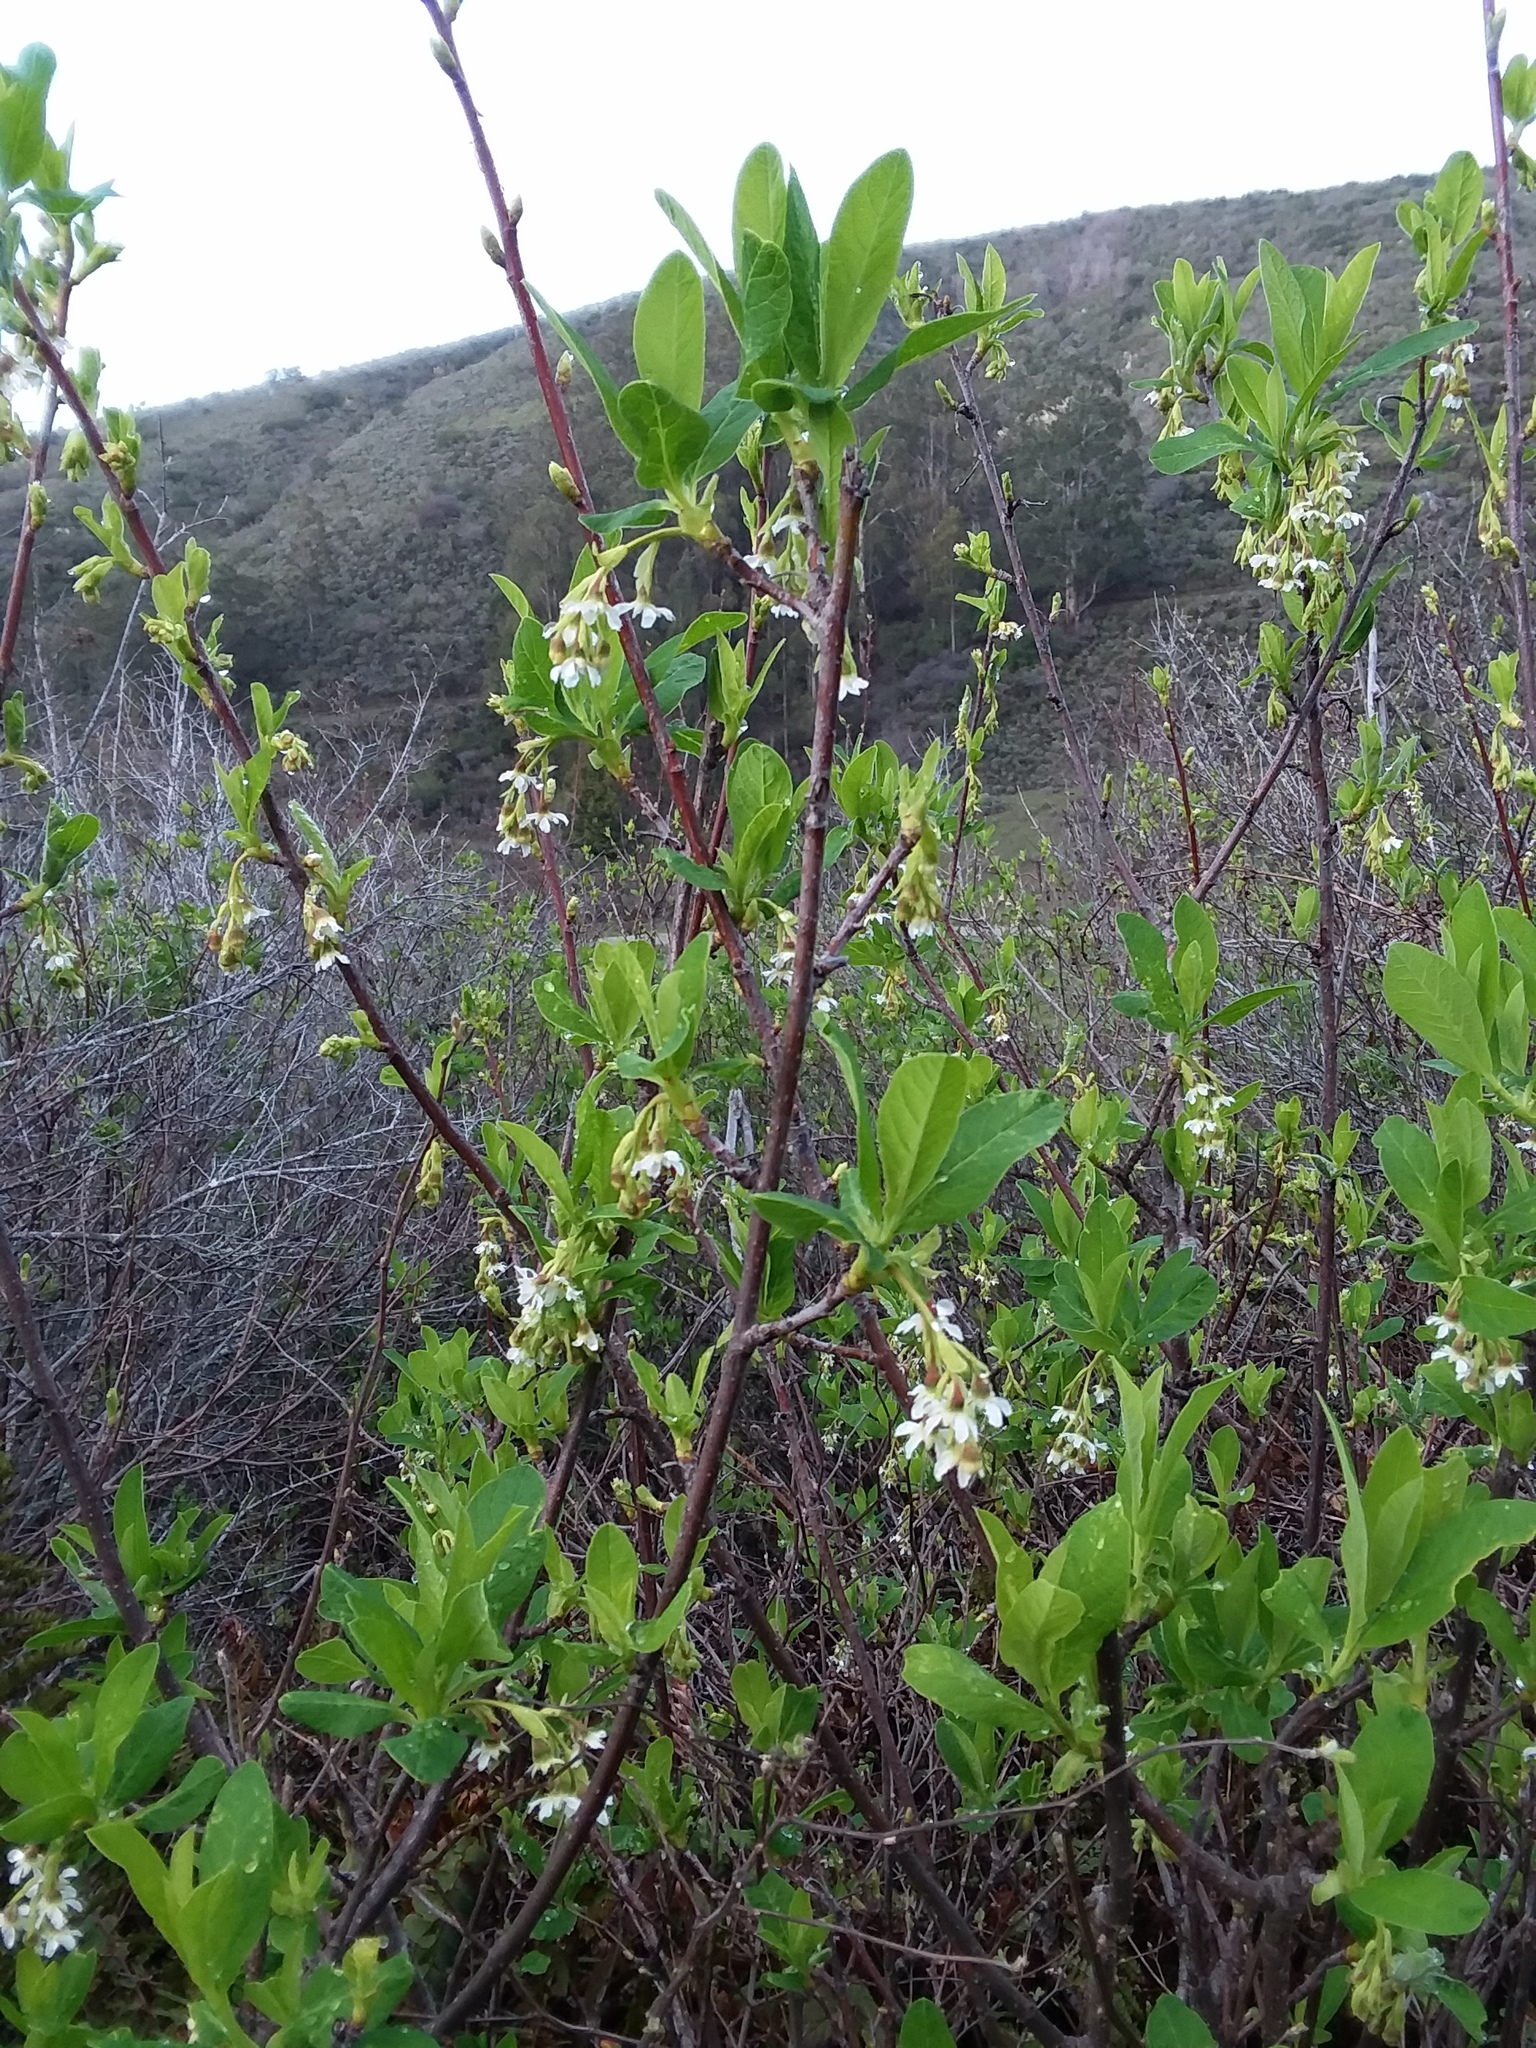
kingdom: Plantae
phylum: Tracheophyta
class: Magnoliopsida
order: Rosales
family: Rosaceae
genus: Oemleria
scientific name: Oemleria cerasiformis
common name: Osoberry
